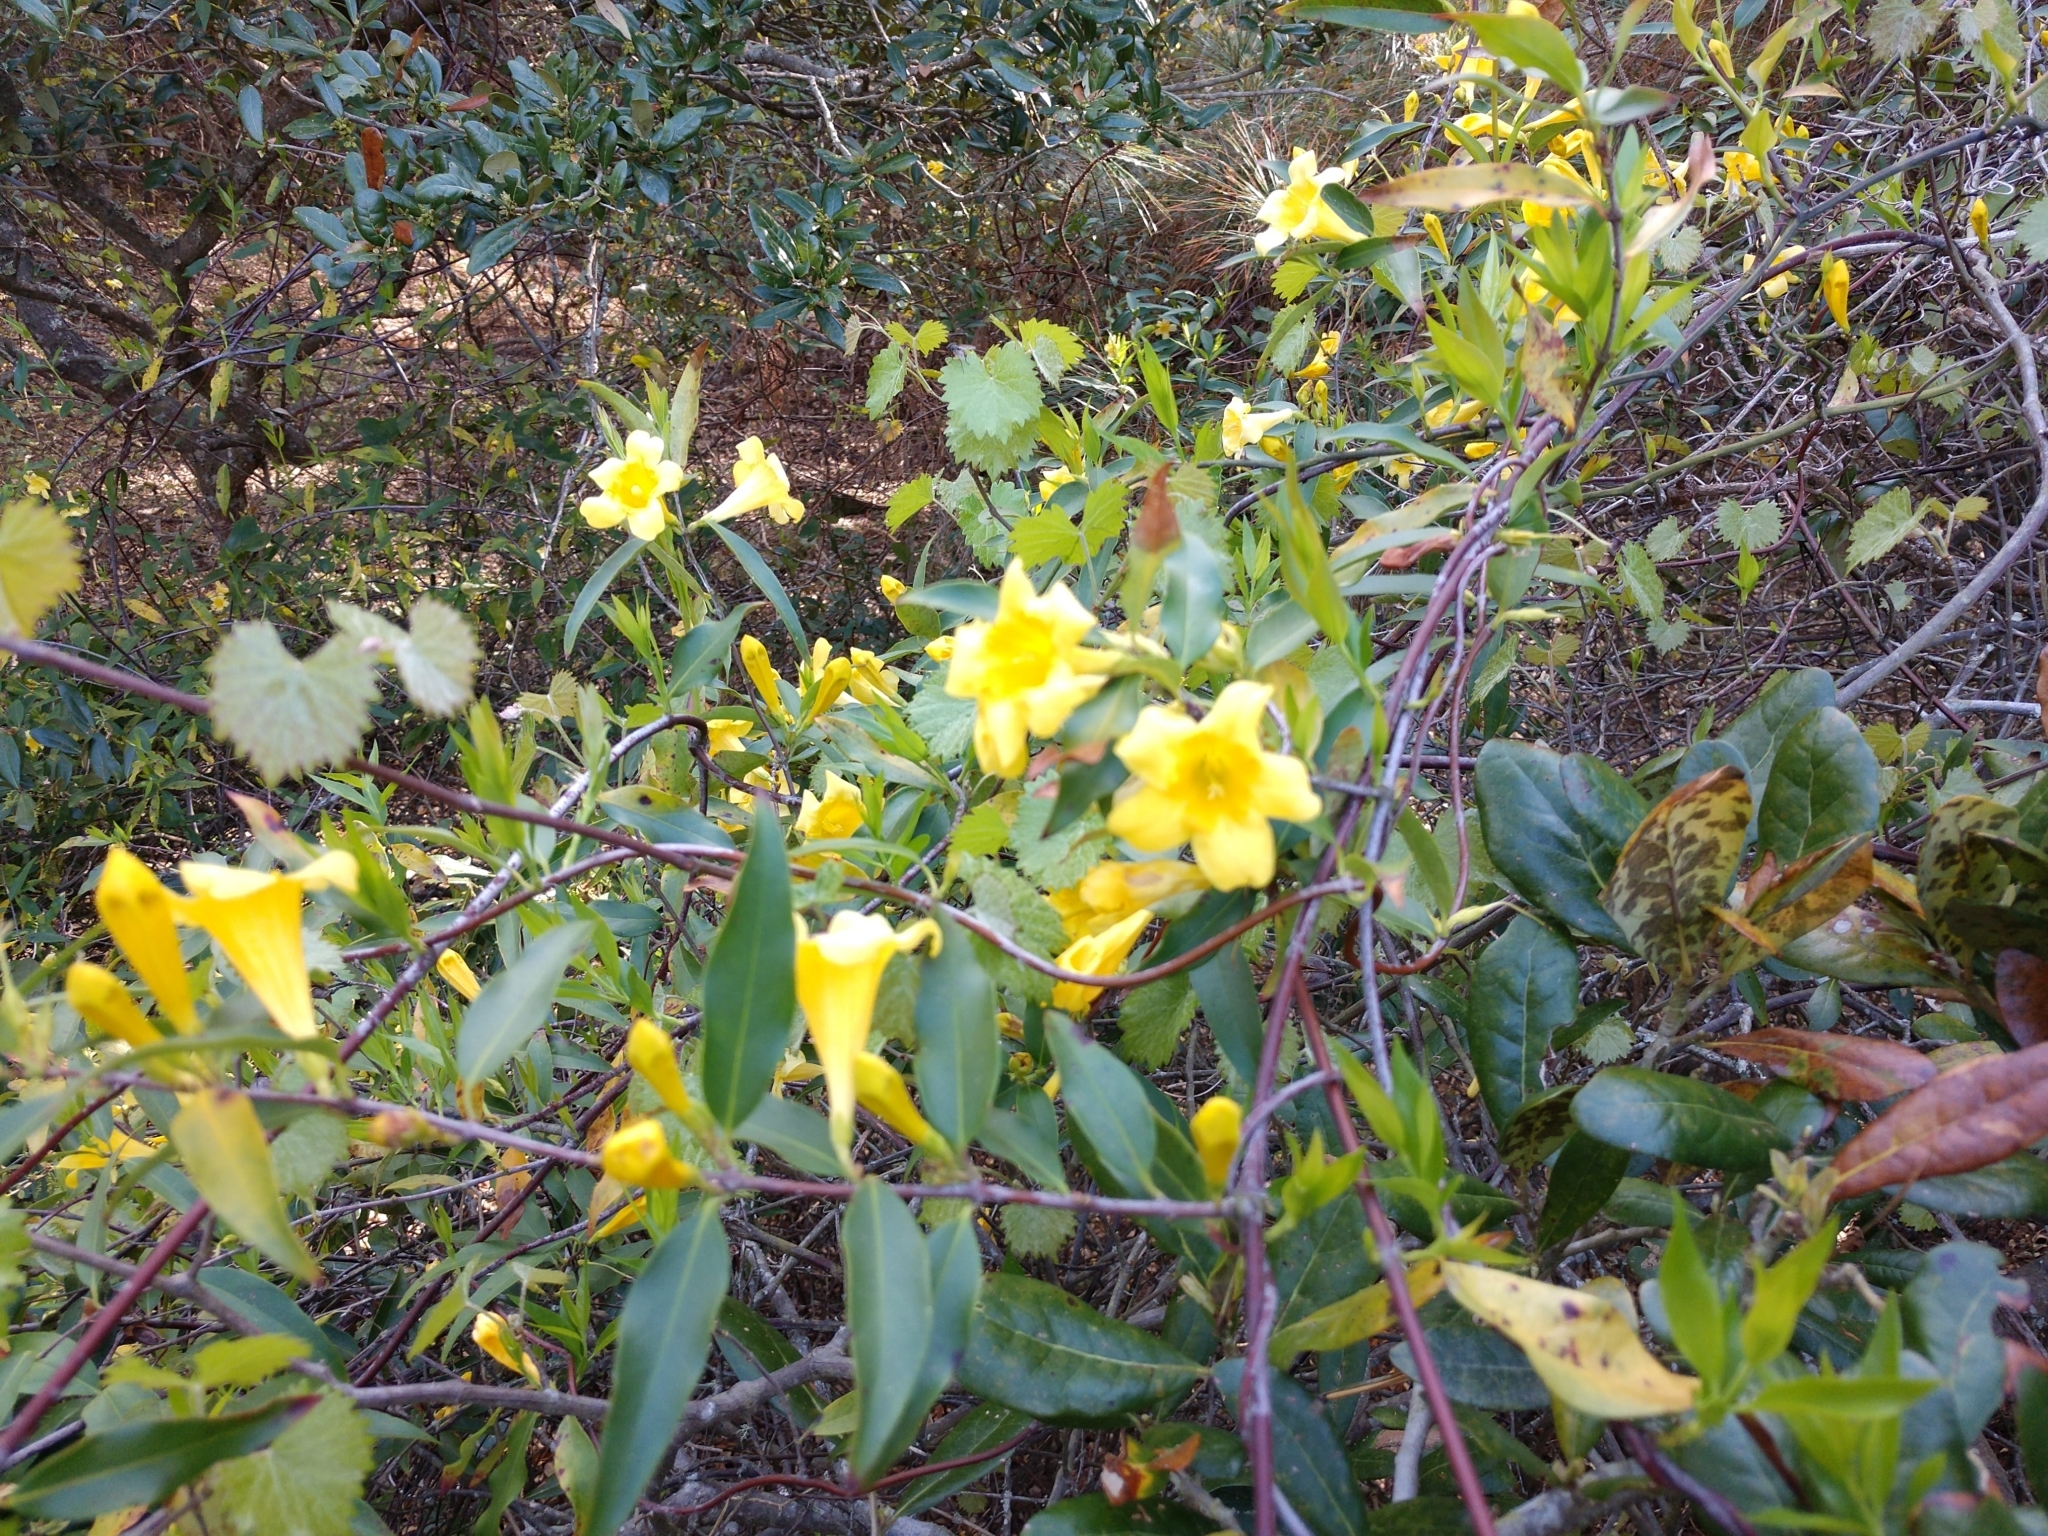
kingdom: Plantae
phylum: Tracheophyta
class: Magnoliopsida
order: Gentianales
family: Gelsemiaceae
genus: Gelsemium
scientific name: Gelsemium sempervirens
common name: Carolina-jasmine
